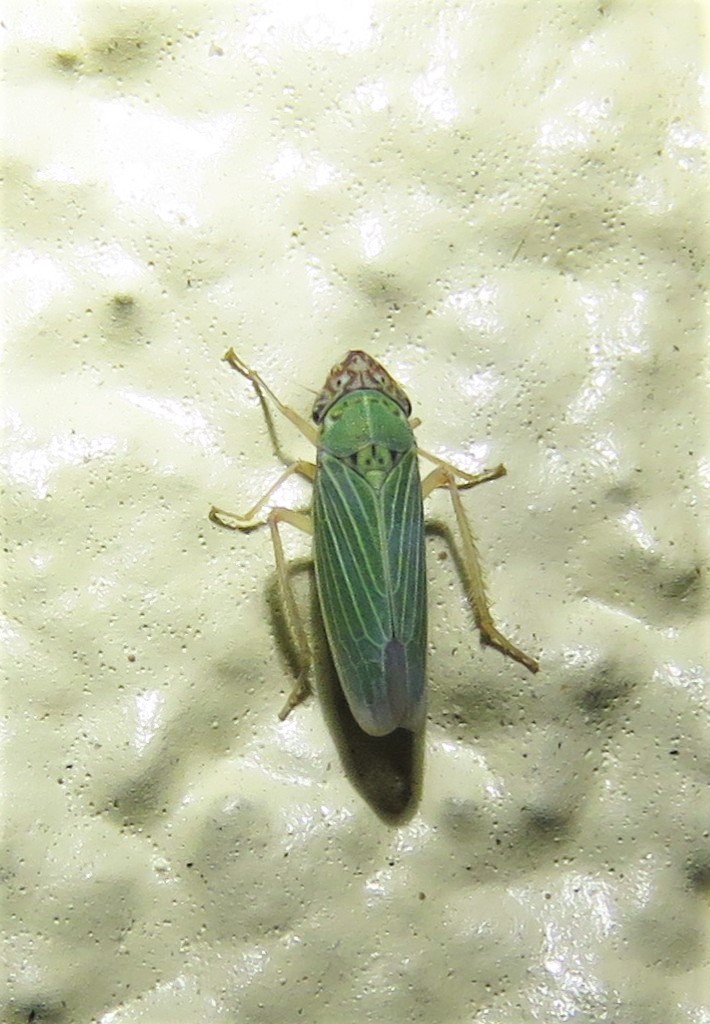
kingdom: Animalia
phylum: Arthropoda
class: Insecta
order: Hemiptera
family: Cicadellidae
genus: Xyphon
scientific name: Xyphon reticulatum
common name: Planthopper
